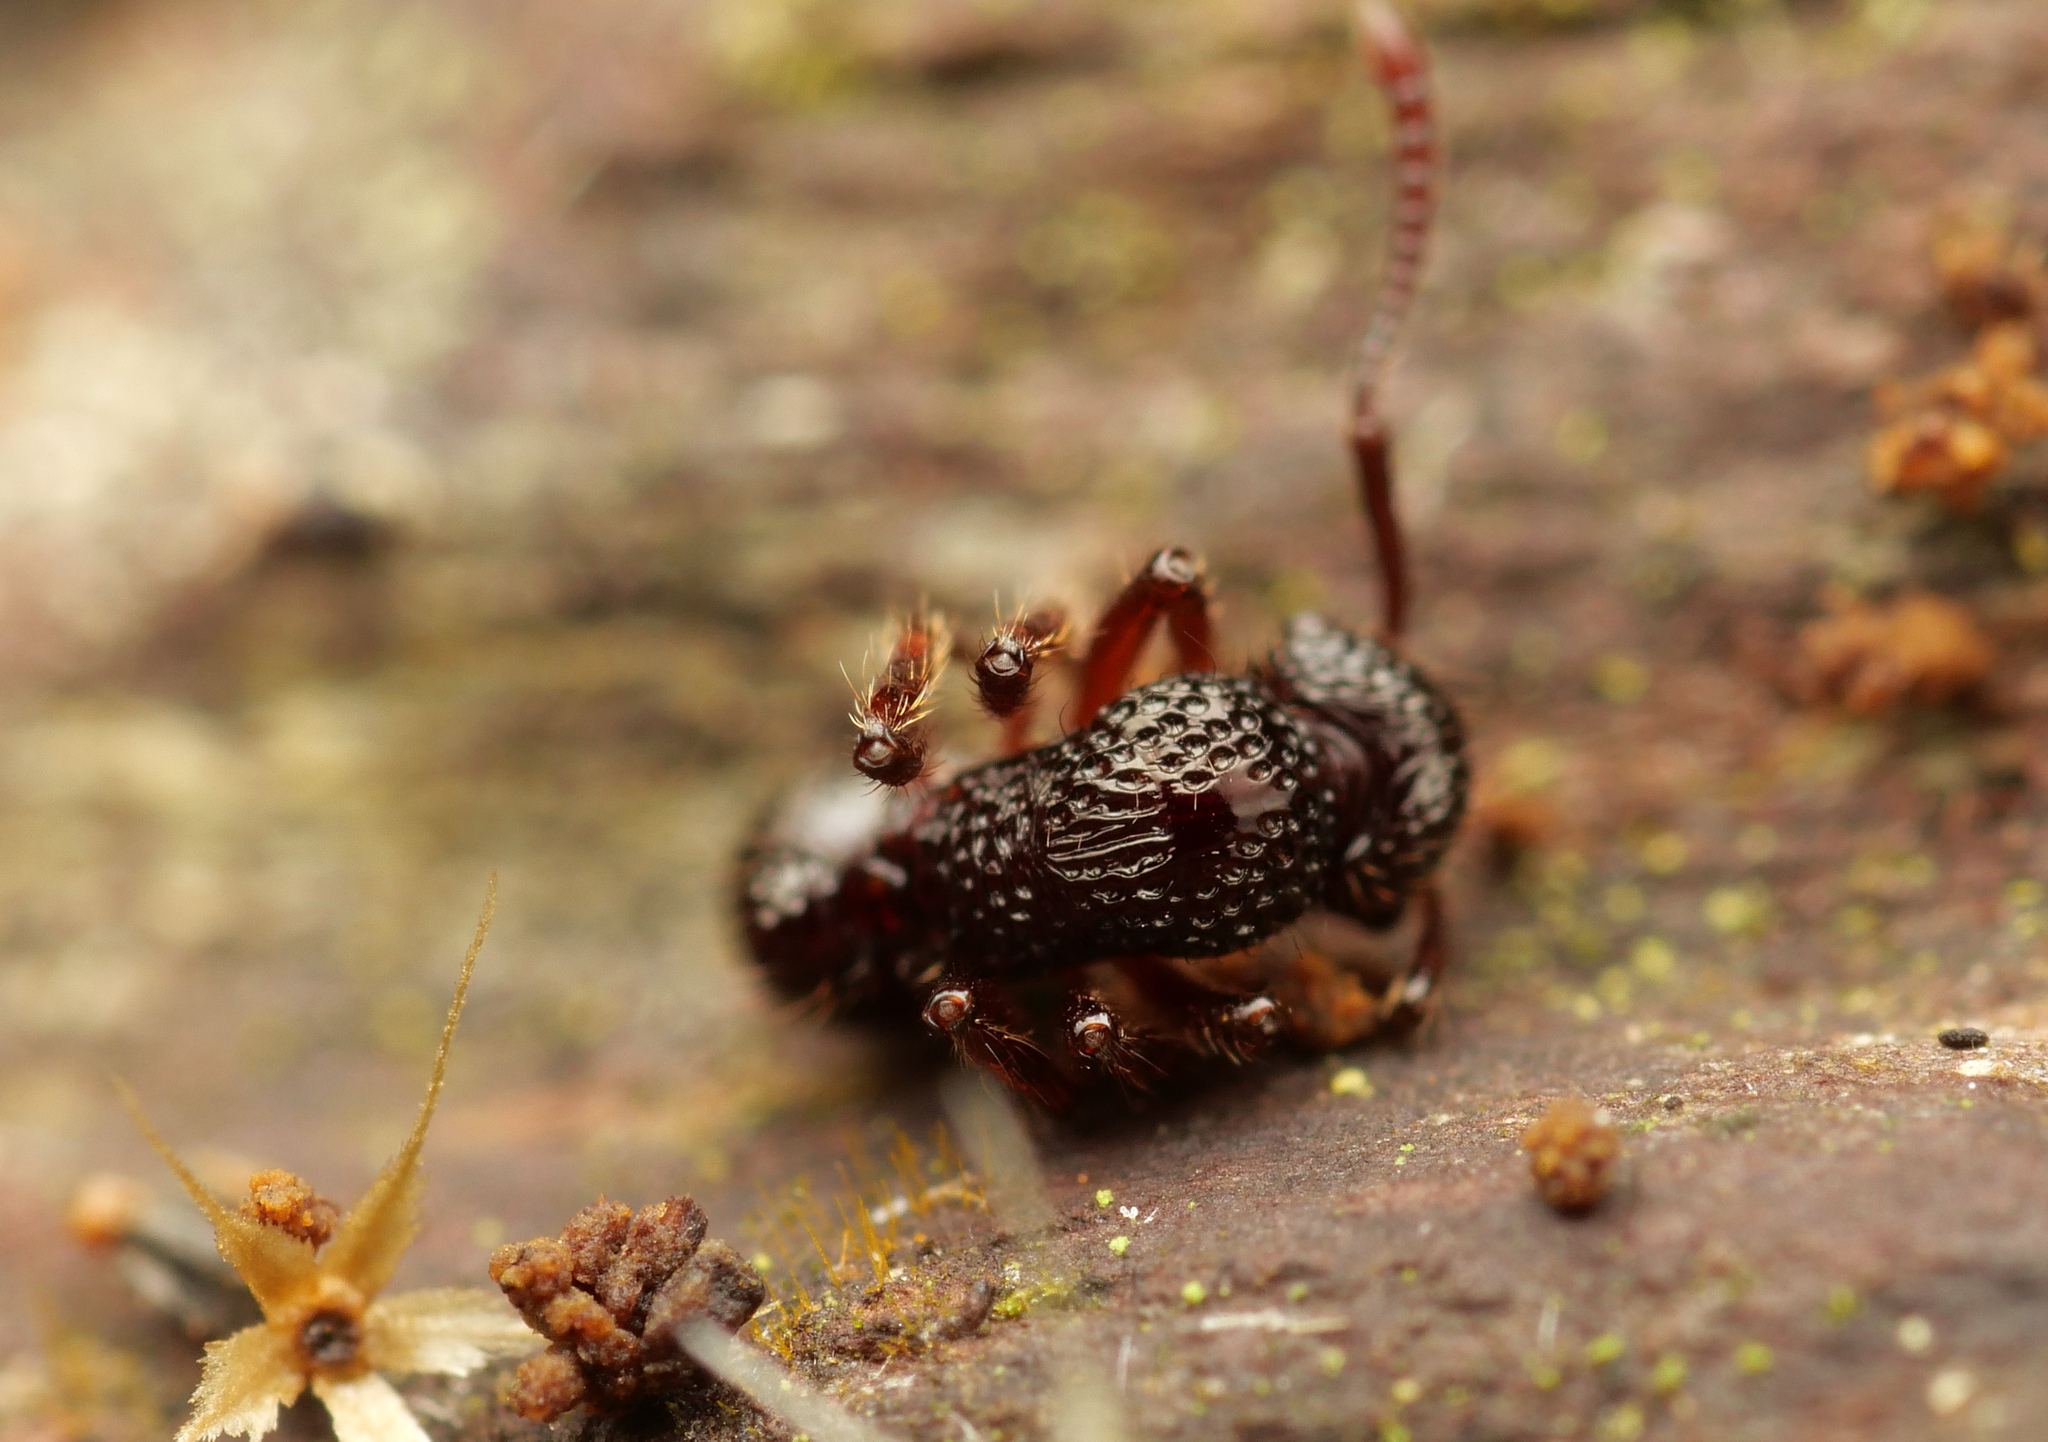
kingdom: Animalia
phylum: Arthropoda
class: Insecta
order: Hymenoptera
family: Formicidae
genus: Stictoponera
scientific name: Stictoponera
